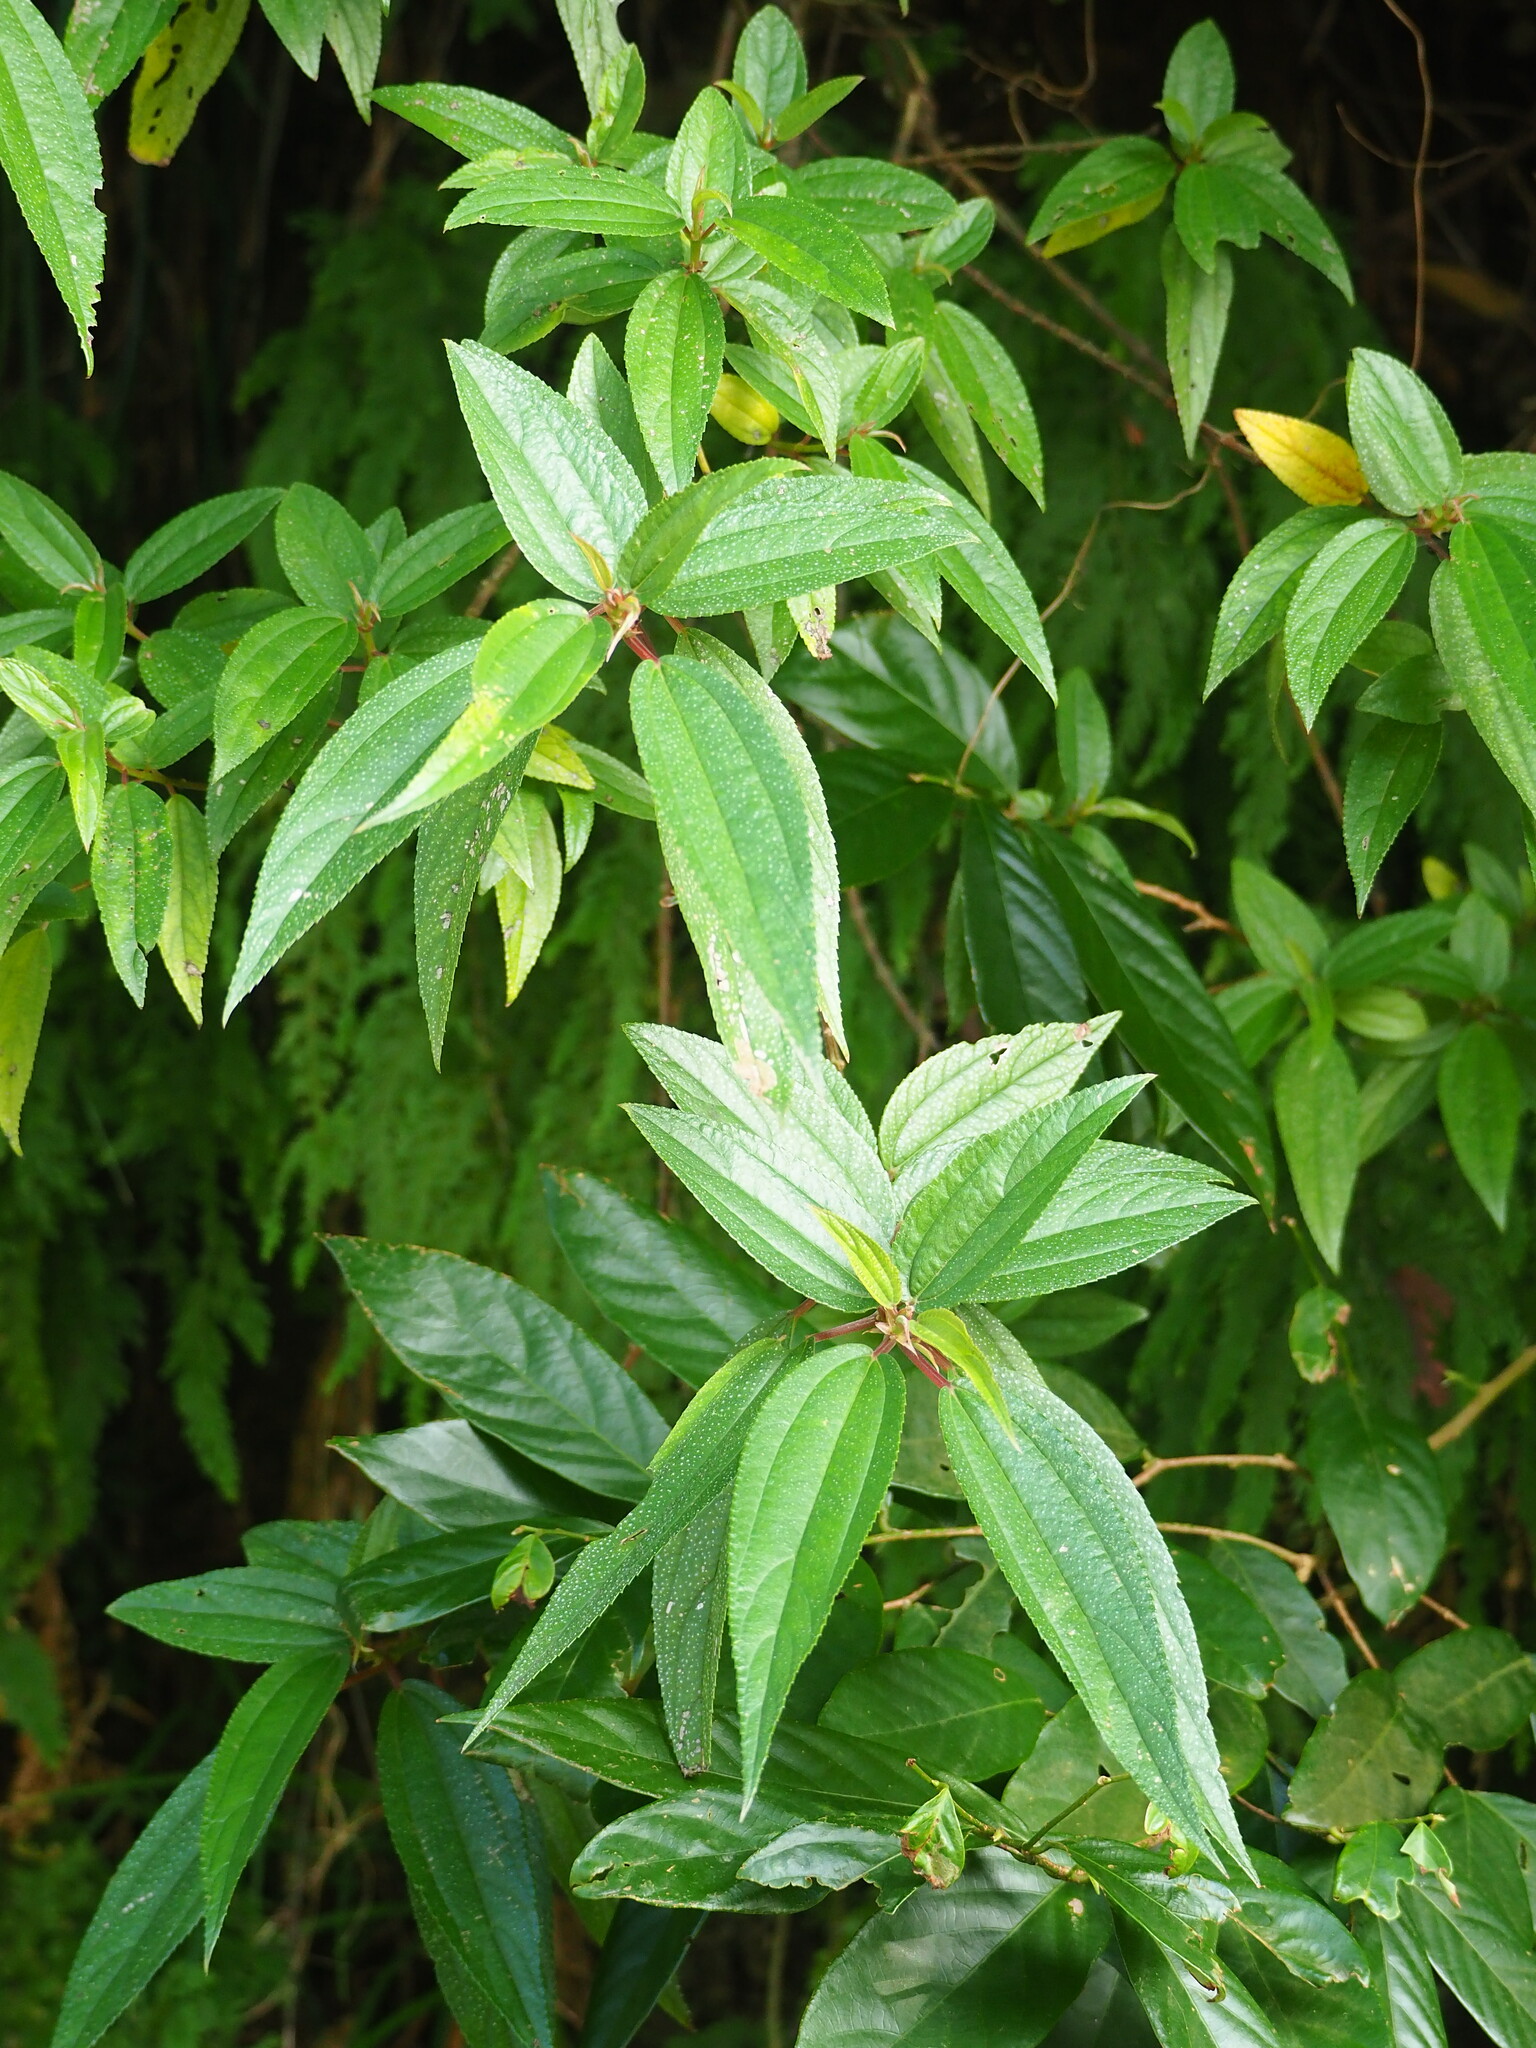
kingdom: Plantae
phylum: Tracheophyta
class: Magnoliopsida
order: Rosales
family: Urticaceae
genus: Boehmeria
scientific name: Boehmeria densiflora
